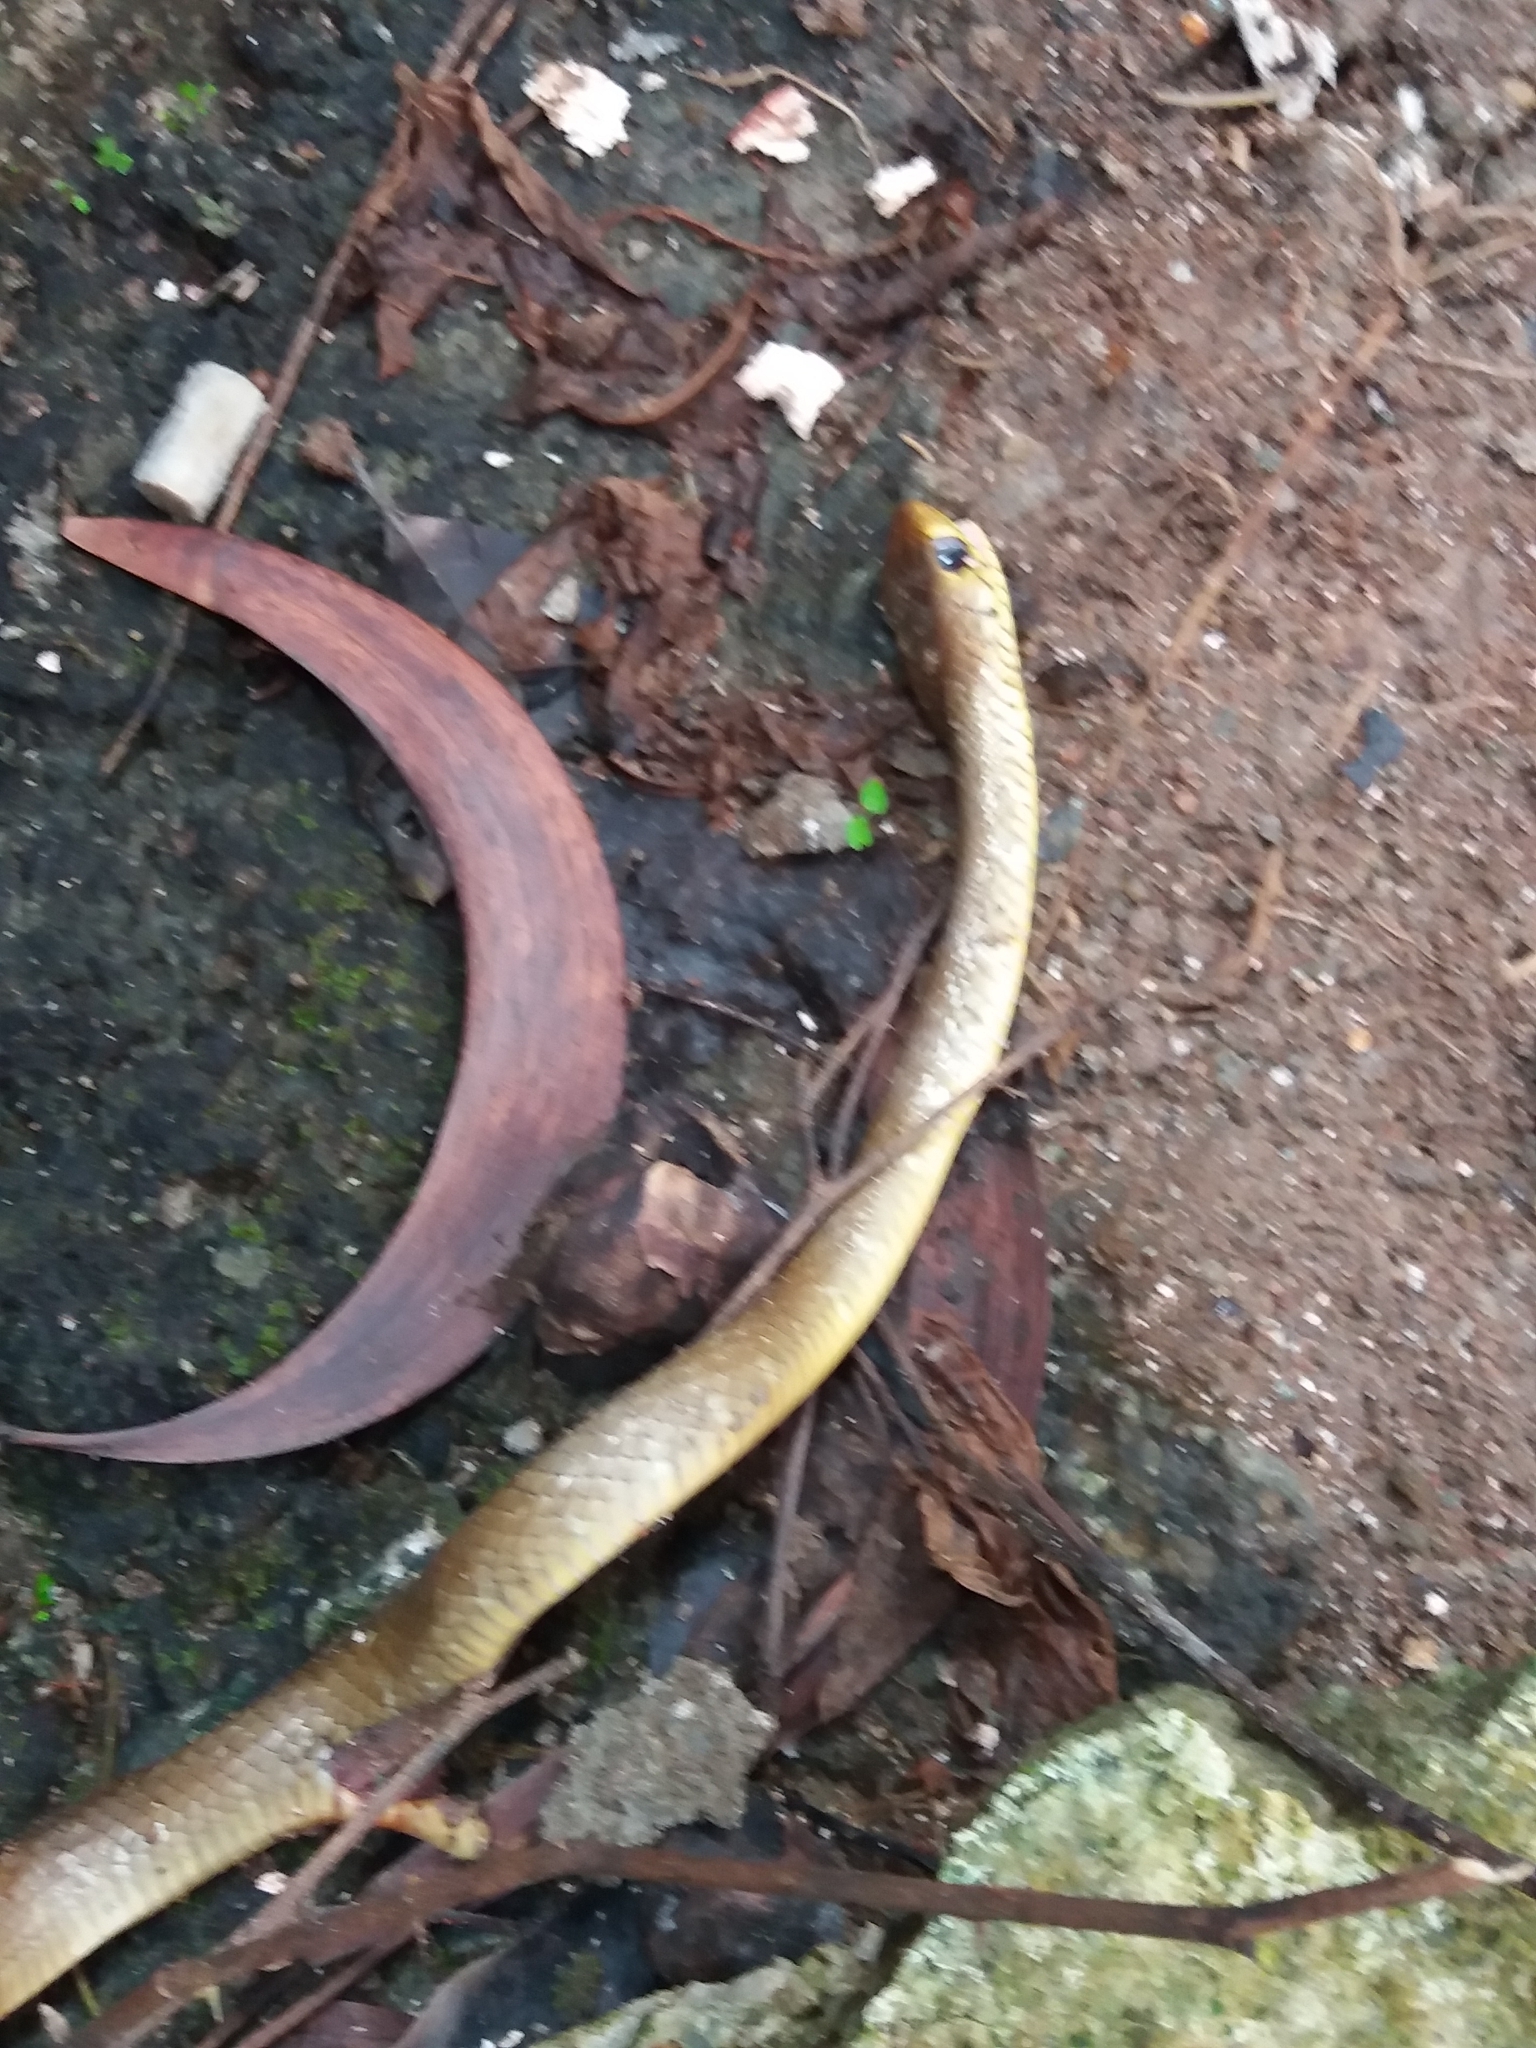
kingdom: Animalia
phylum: Chordata
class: Squamata
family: Colubridae
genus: Ptyas
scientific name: Ptyas mucosa
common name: Oriental ratsnake
